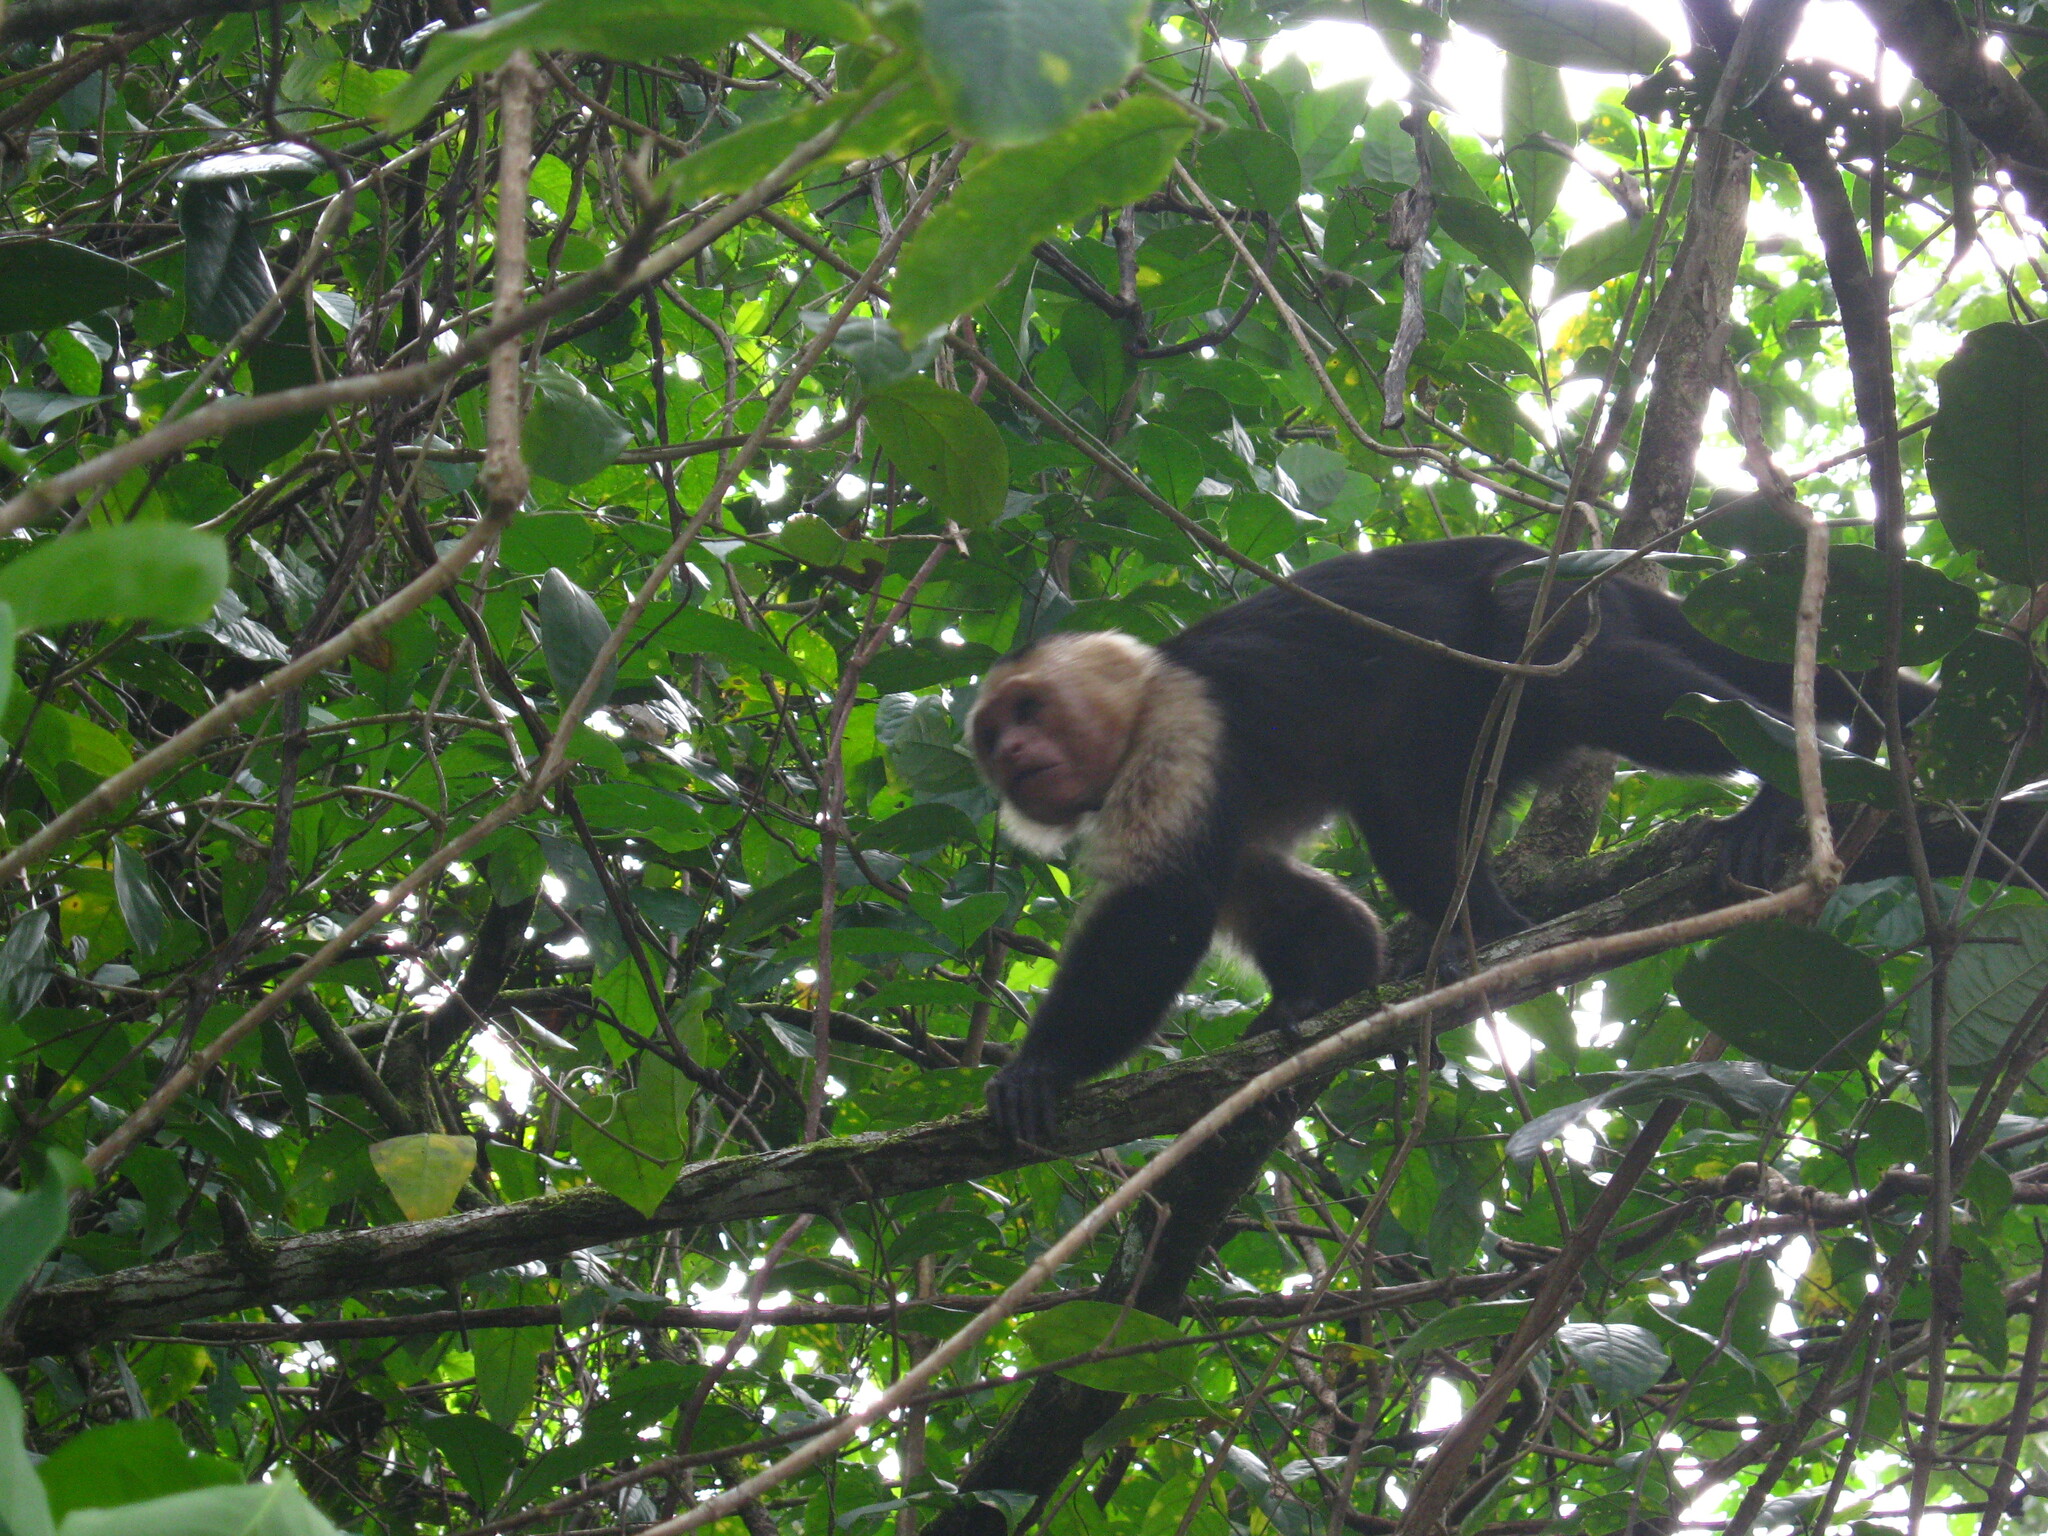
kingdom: Animalia
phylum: Chordata
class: Mammalia
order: Primates
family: Cebidae
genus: Cebus
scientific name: Cebus imitator
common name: Panamanian white-faced capuchin
